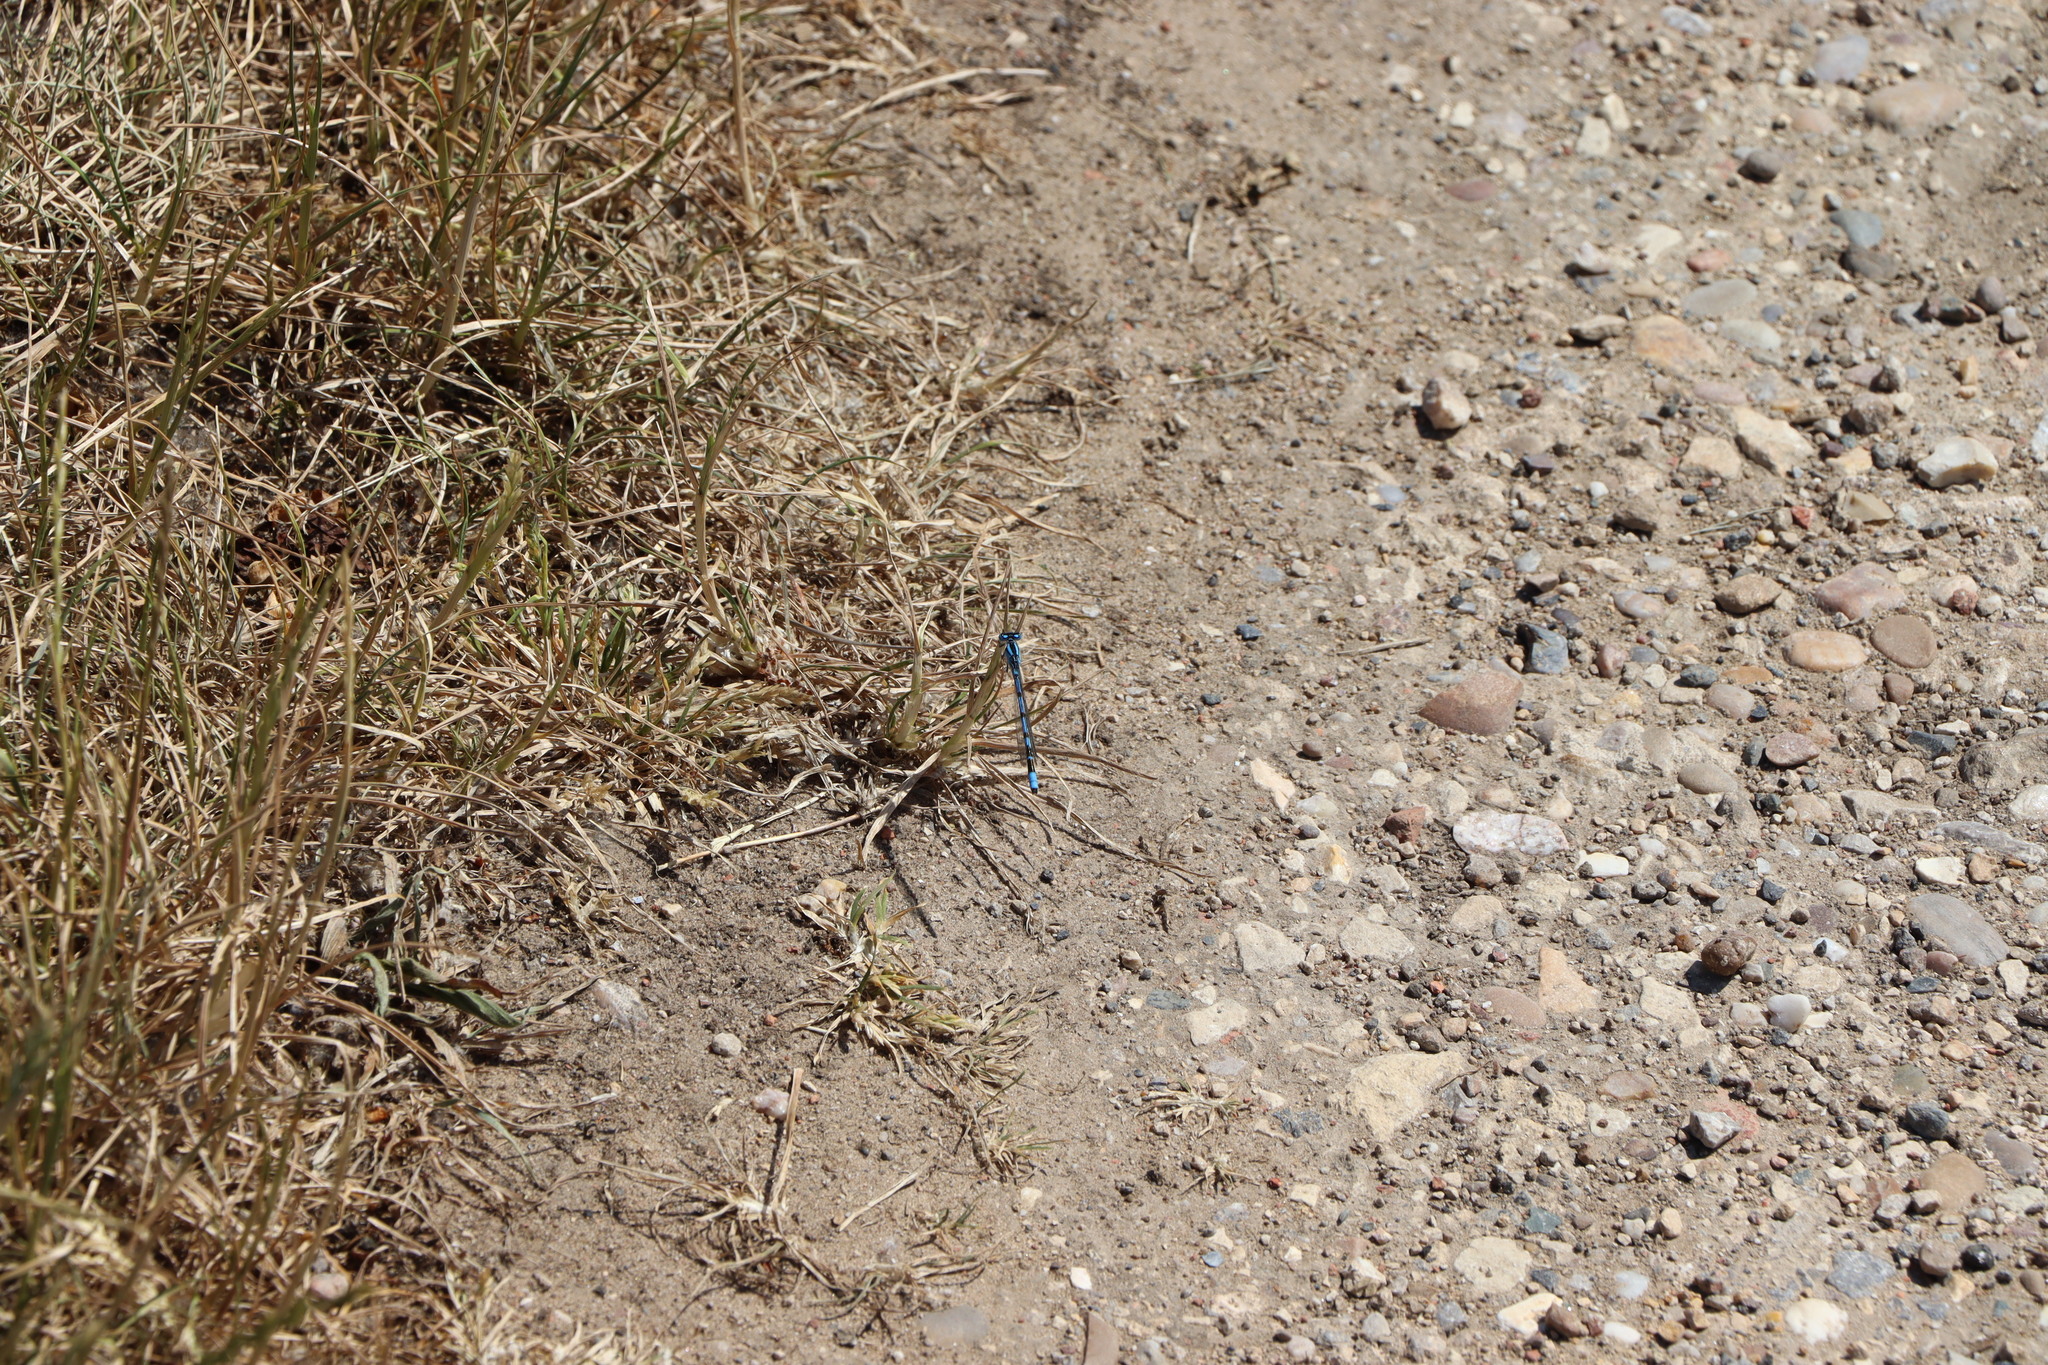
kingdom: Animalia
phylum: Arthropoda
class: Insecta
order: Odonata
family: Coenagrionidae
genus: Enallagma
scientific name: Enallagma cyathigerum
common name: Common blue damselfly
